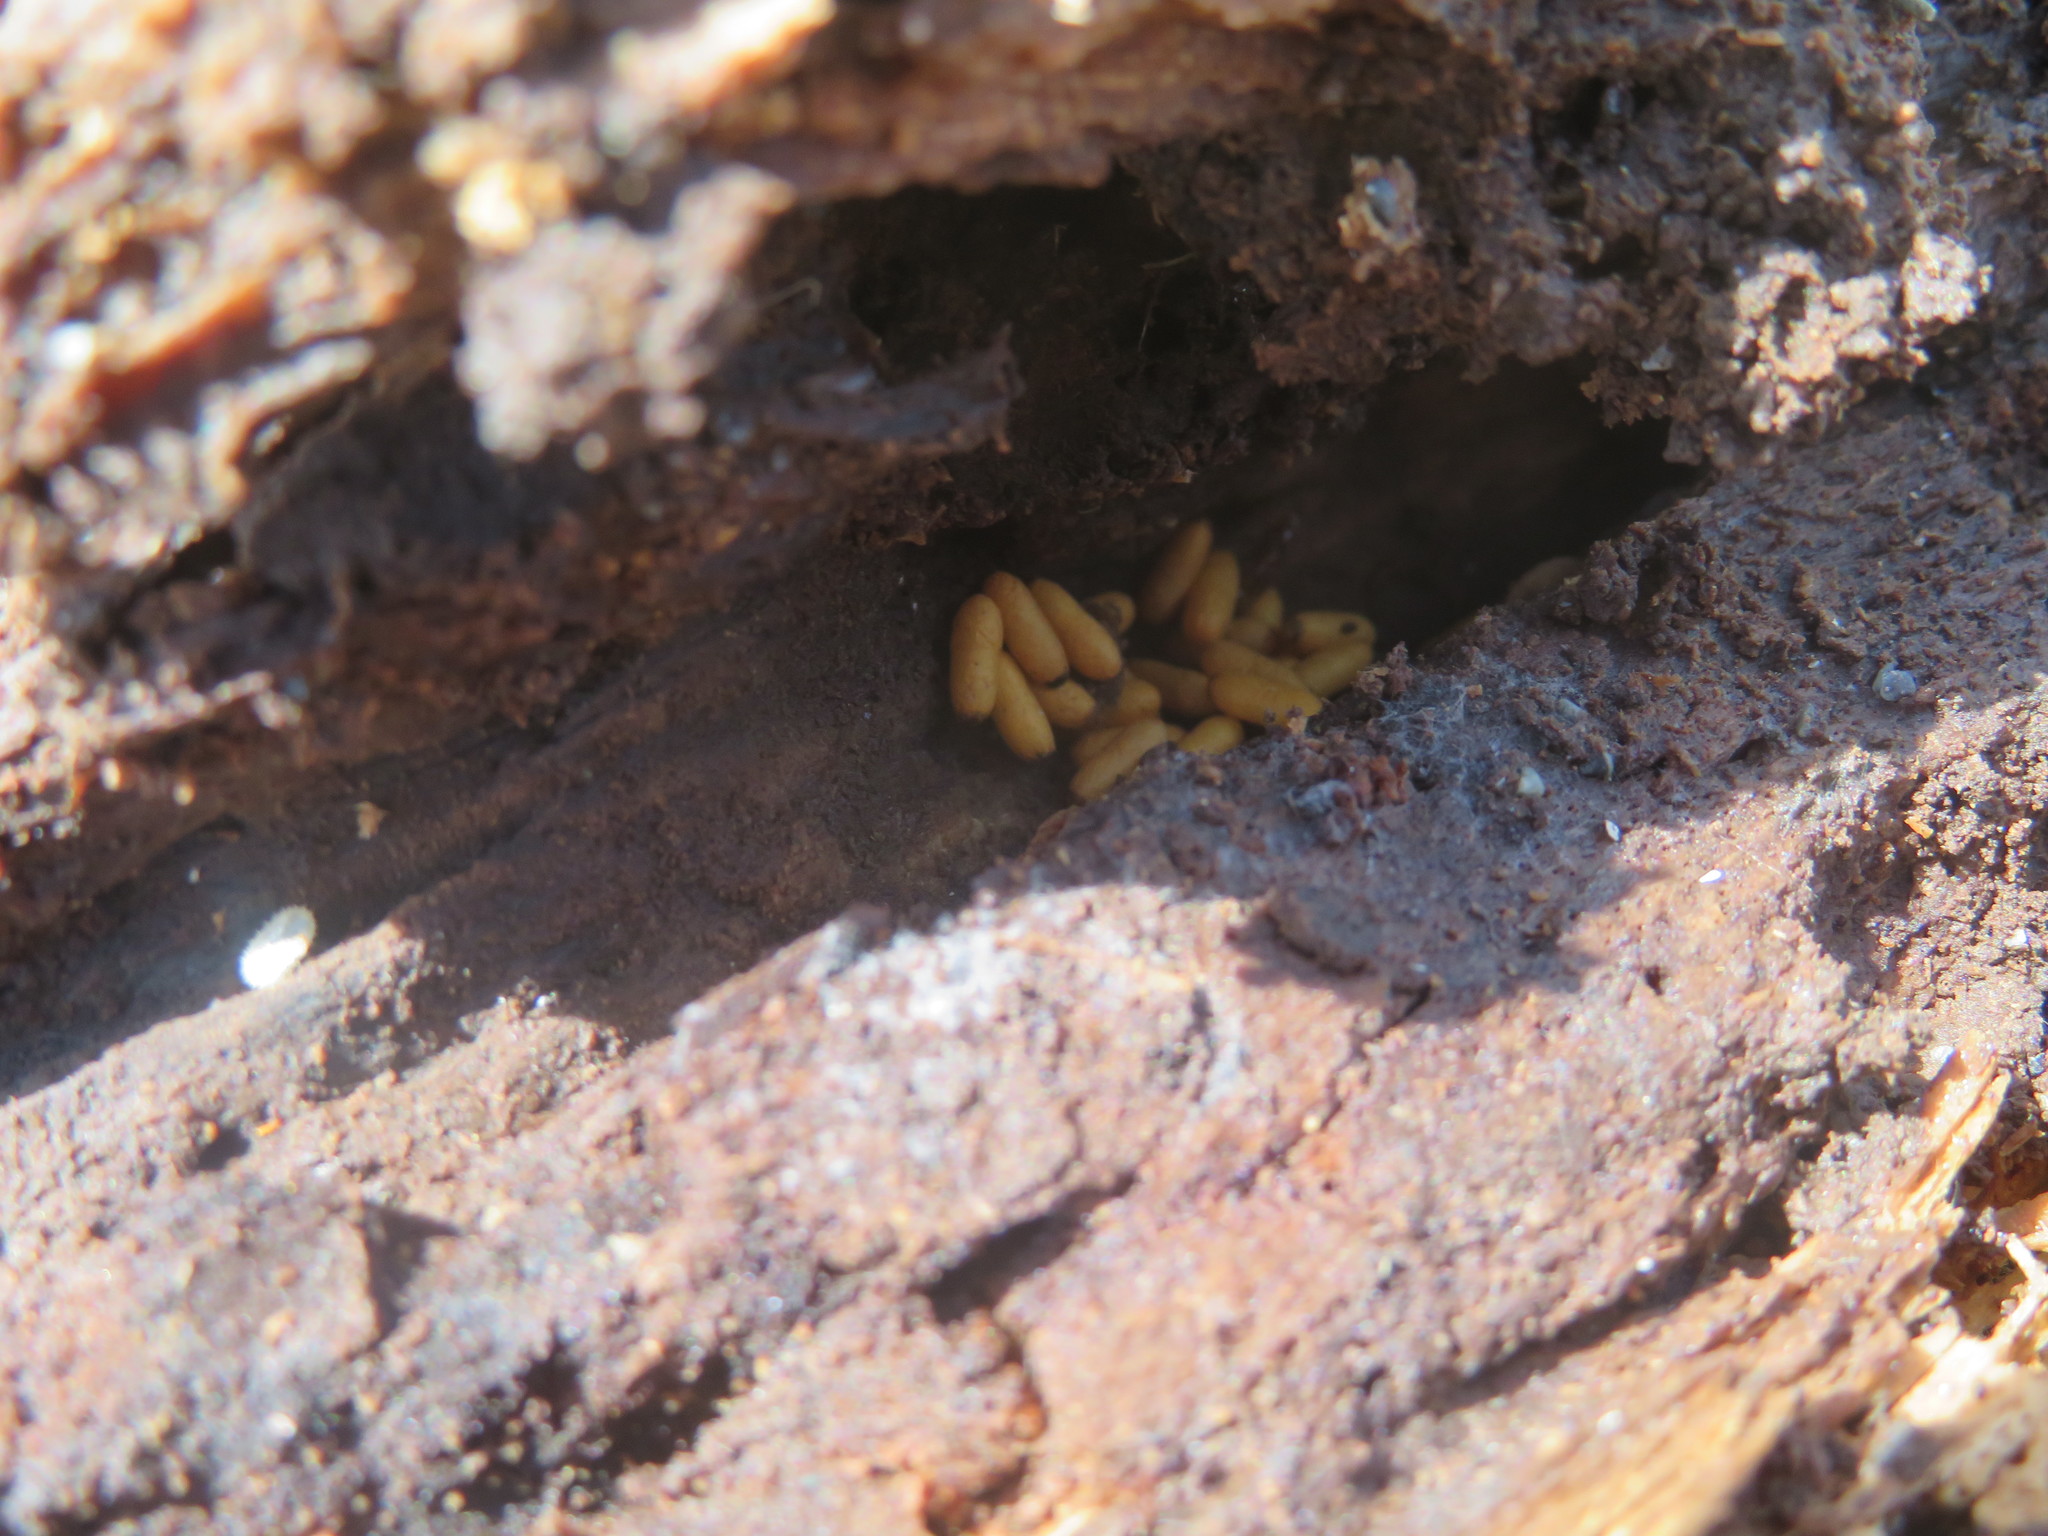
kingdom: Animalia
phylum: Arthropoda
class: Insecta
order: Hymenoptera
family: Formicidae
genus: Prolasius
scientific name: Prolasius advenus
